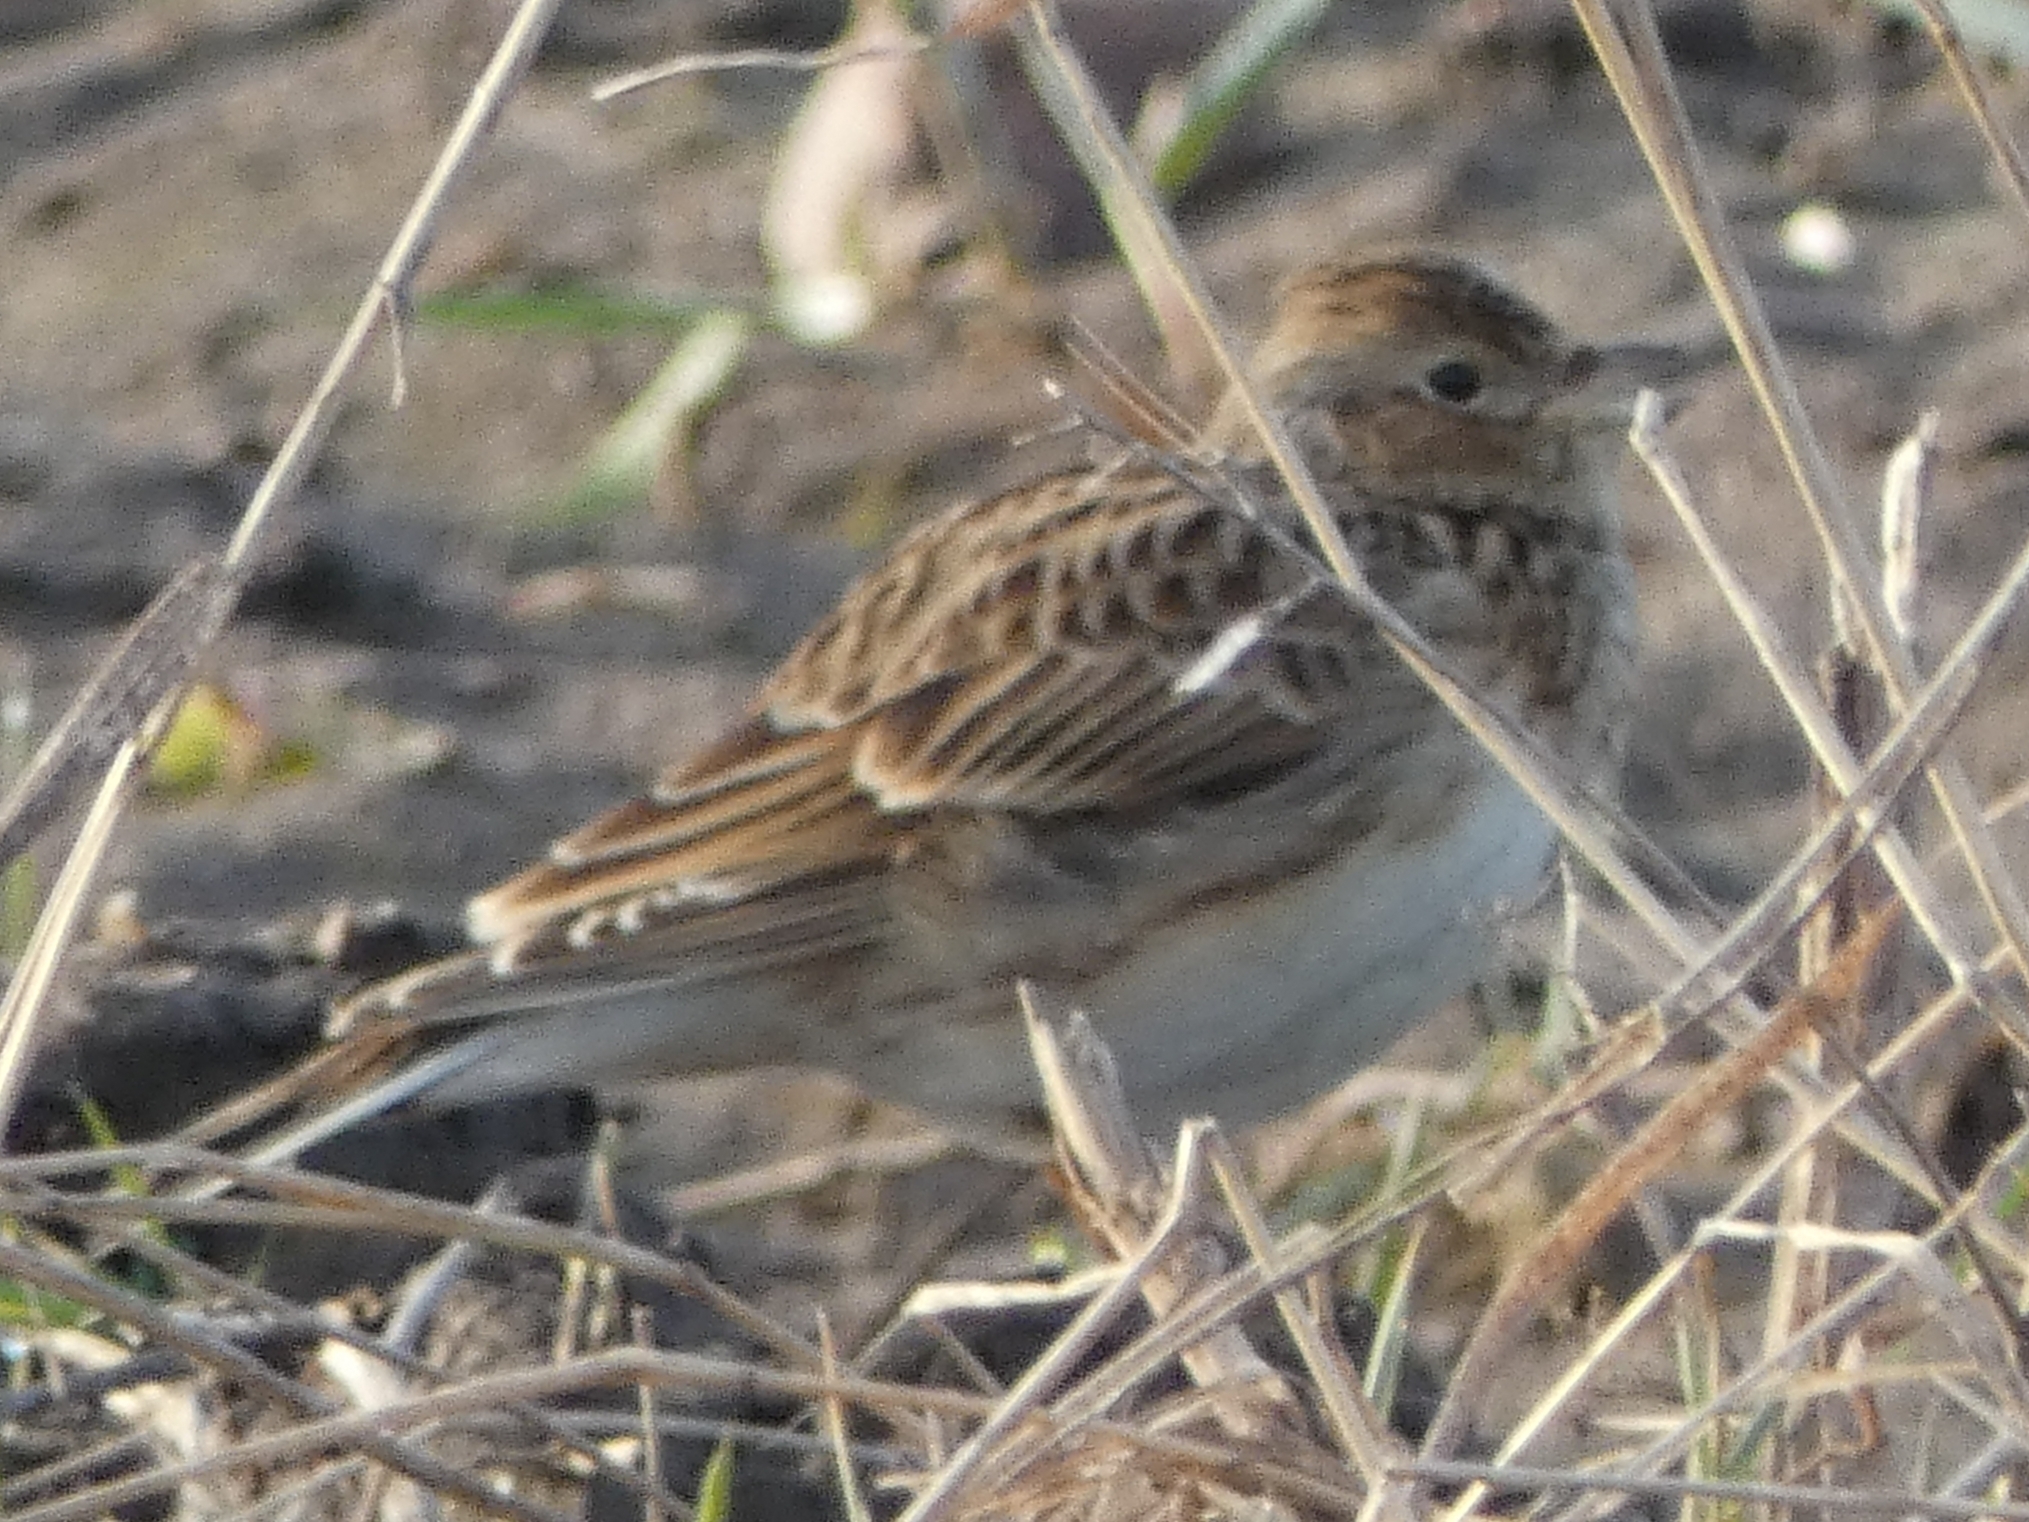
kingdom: Animalia
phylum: Chordata
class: Aves
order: Passeriformes
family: Alaudidae
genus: Alauda
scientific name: Alauda arvensis
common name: Eurasian skylark
